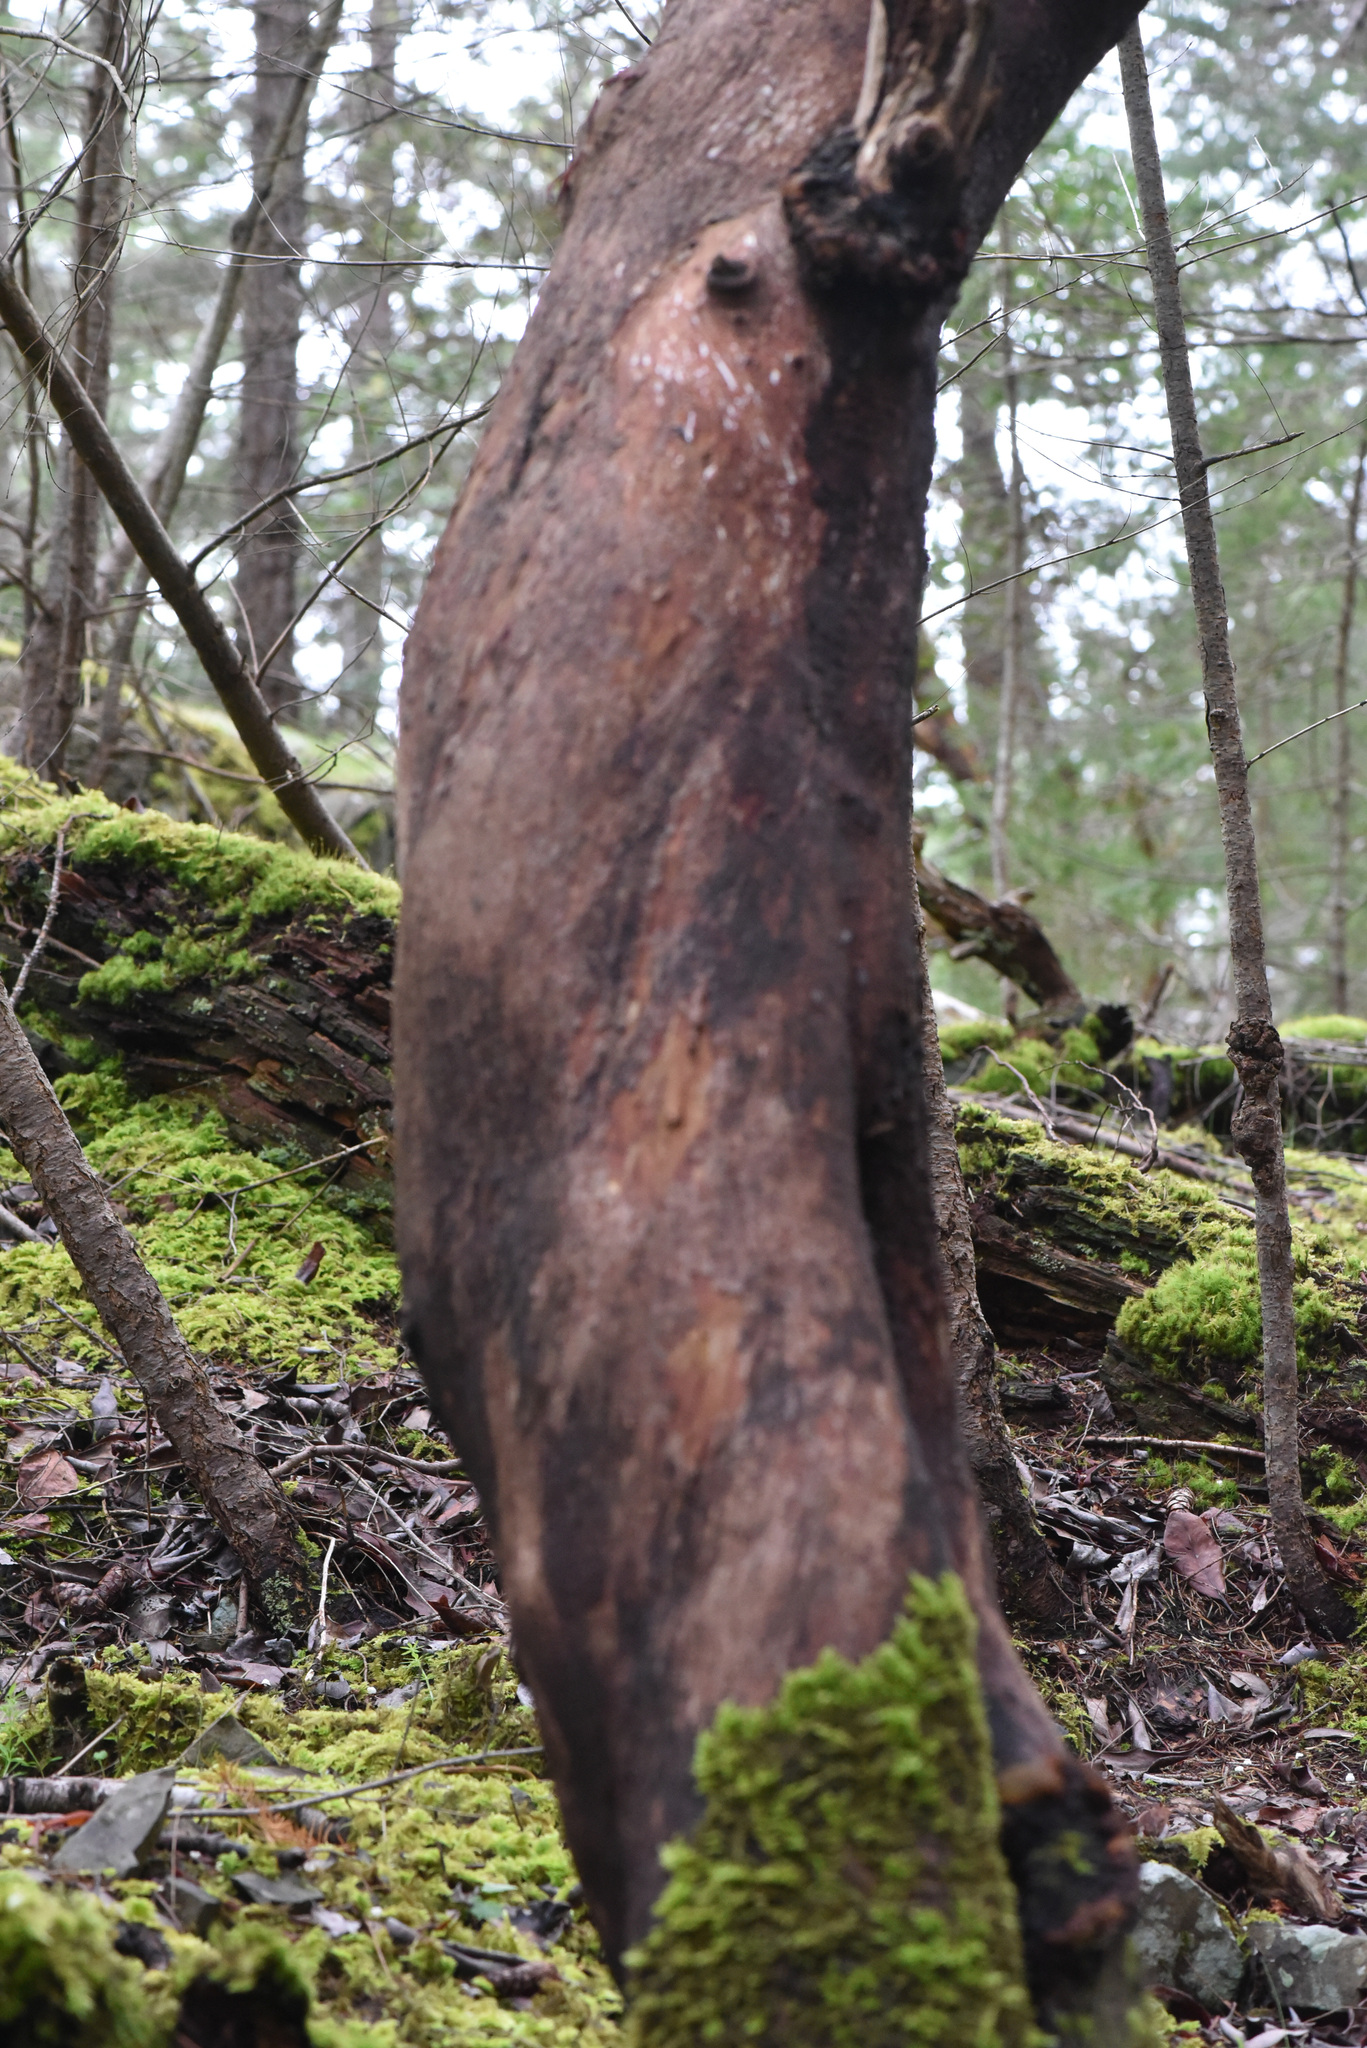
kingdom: Plantae
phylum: Tracheophyta
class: Magnoliopsida
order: Ericales
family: Ericaceae
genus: Arbutus
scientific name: Arbutus menziesii
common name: Pacific madrone
